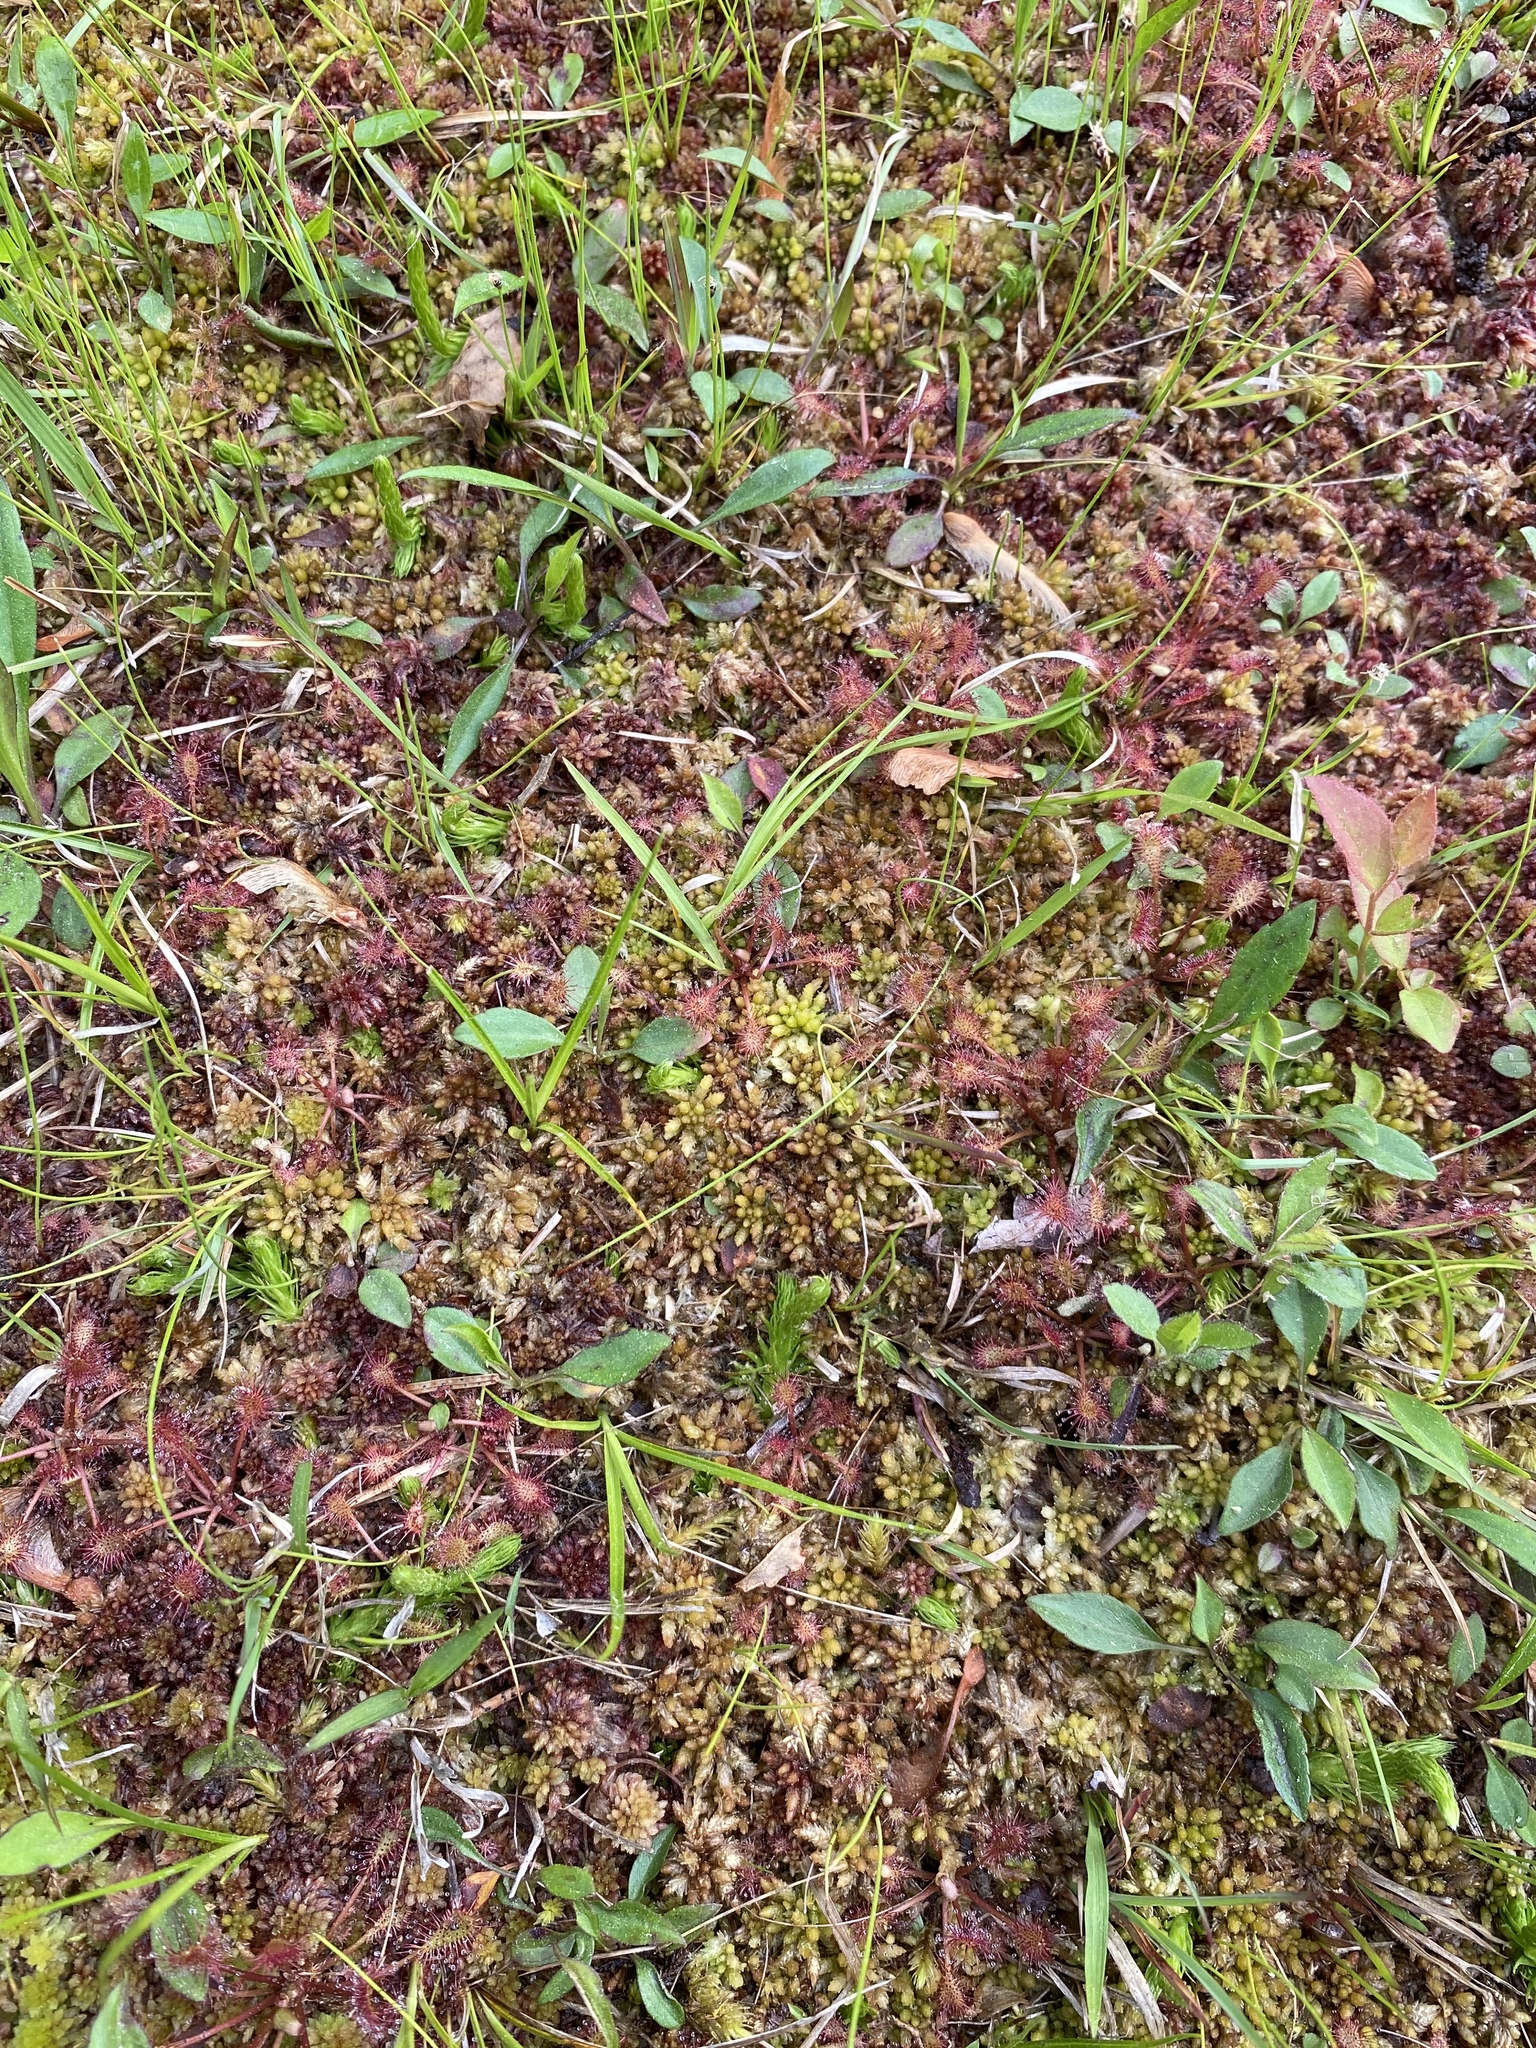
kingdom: Plantae
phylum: Tracheophyta
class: Magnoliopsida
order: Caryophyllales
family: Droseraceae
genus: Drosera
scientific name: Drosera intermedia
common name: Oblong-leaved sundew
